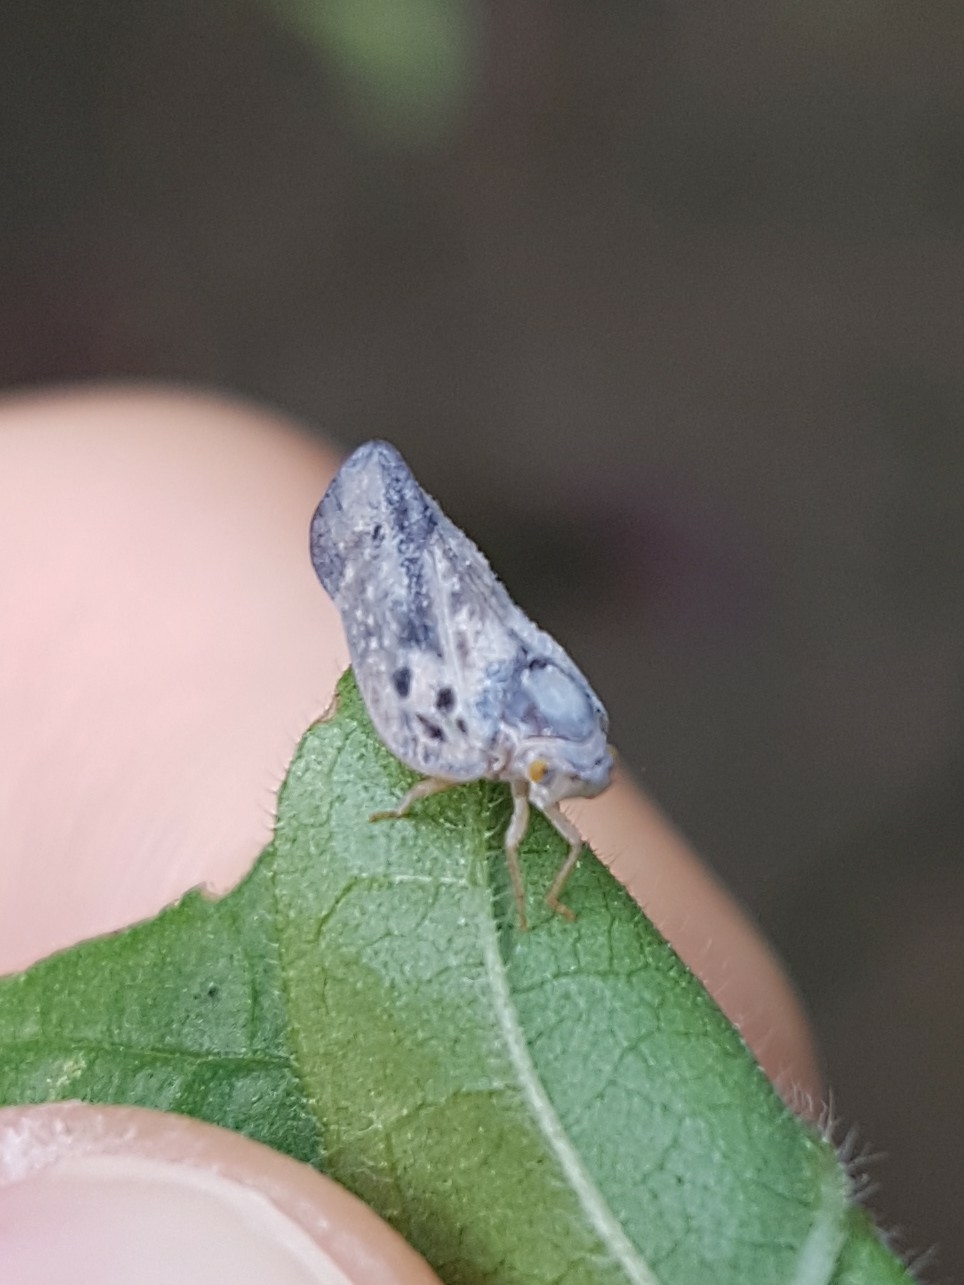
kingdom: Animalia
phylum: Arthropoda
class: Insecta
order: Hemiptera
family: Flatidae
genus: Metcalfa
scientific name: Metcalfa pruinosa
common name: Citrus flatid planthopper
